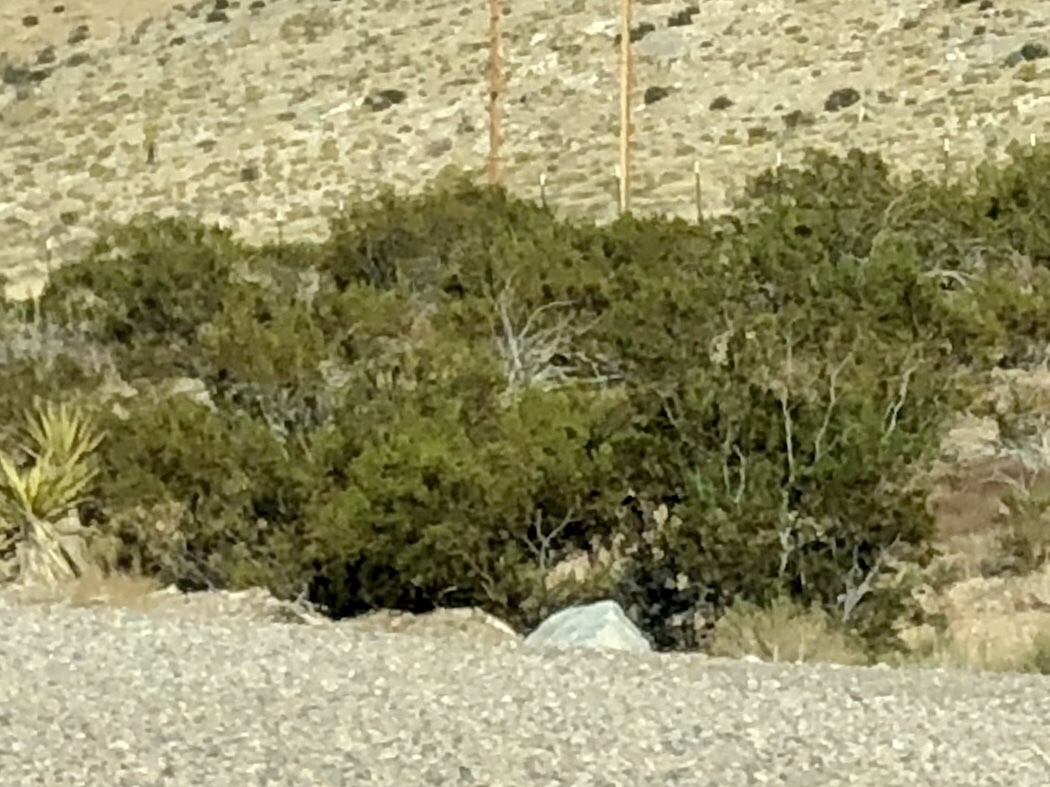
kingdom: Plantae
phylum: Tracheophyta
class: Magnoliopsida
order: Zygophyllales
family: Zygophyllaceae
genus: Larrea
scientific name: Larrea tridentata
